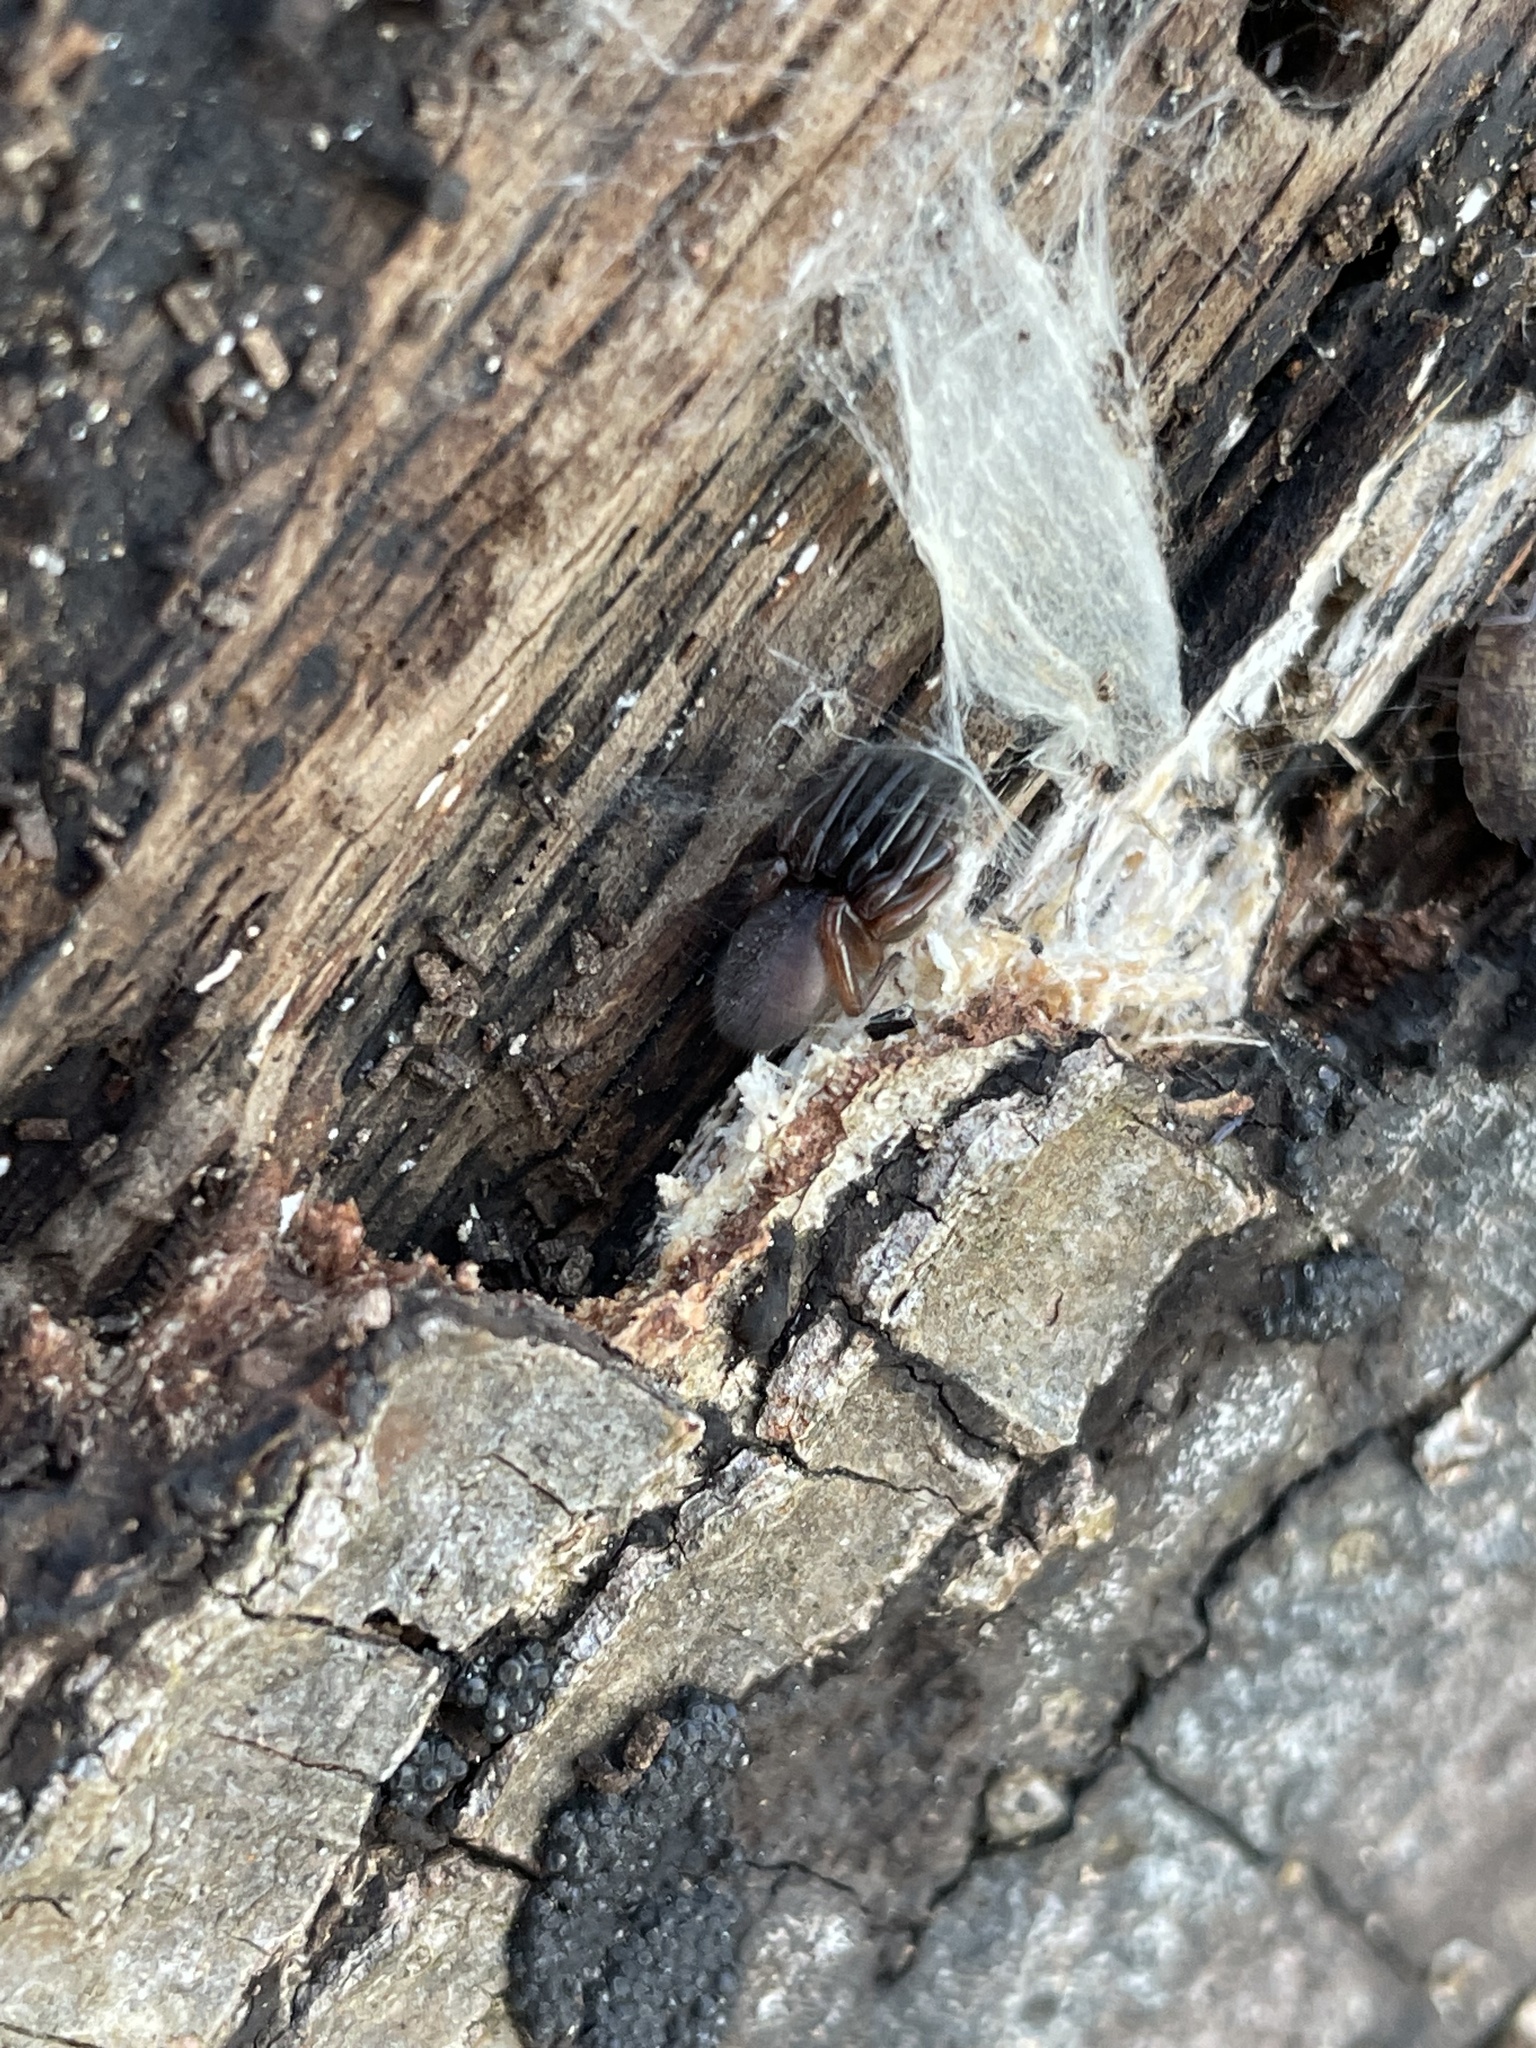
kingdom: Animalia
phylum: Arthropoda
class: Arachnida
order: Araneae
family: Segestriidae
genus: Ariadna
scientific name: Ariadna bicolor
